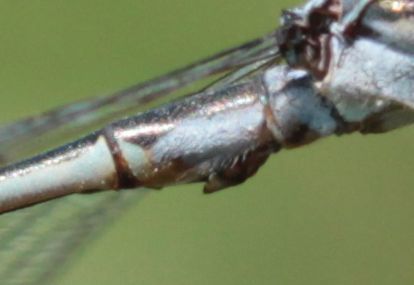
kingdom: Animalia
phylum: Arthropoda
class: Insecta
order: Odonata
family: Lestidae
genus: Lestes
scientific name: Lestes disjunctus
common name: Northern spreadwing
